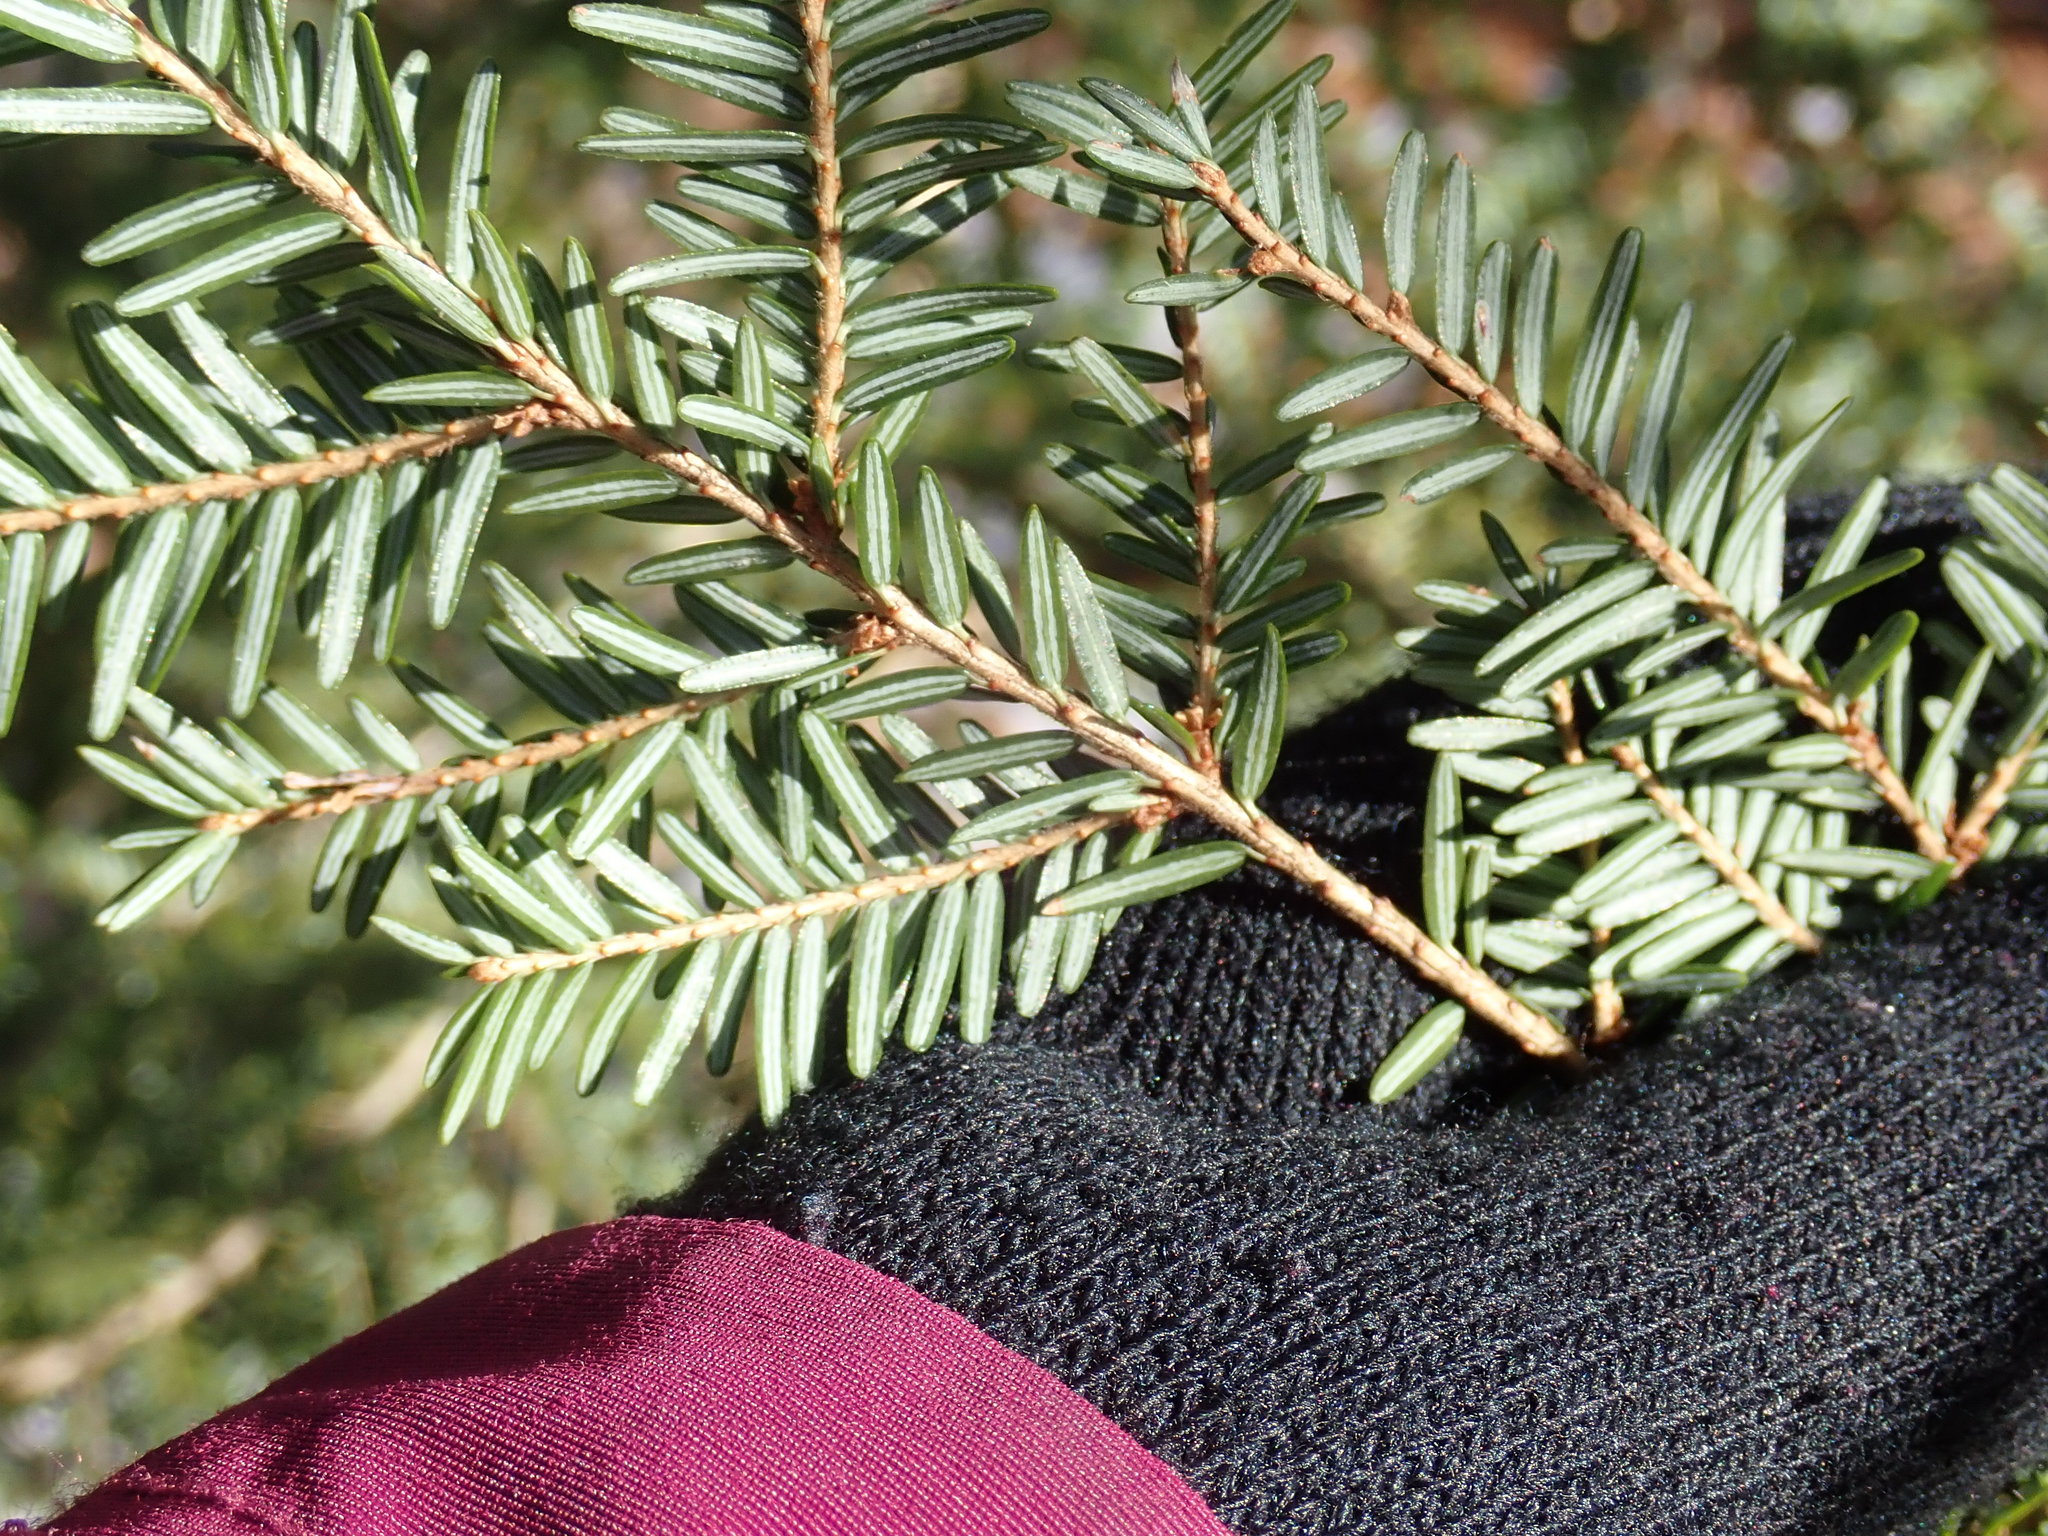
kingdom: Plantae
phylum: Tracheophyta
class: Pinopsida
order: Pinales
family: Pinaceae
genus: Tsuga
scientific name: Tsuga canadensis
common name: Eastern hemlock
